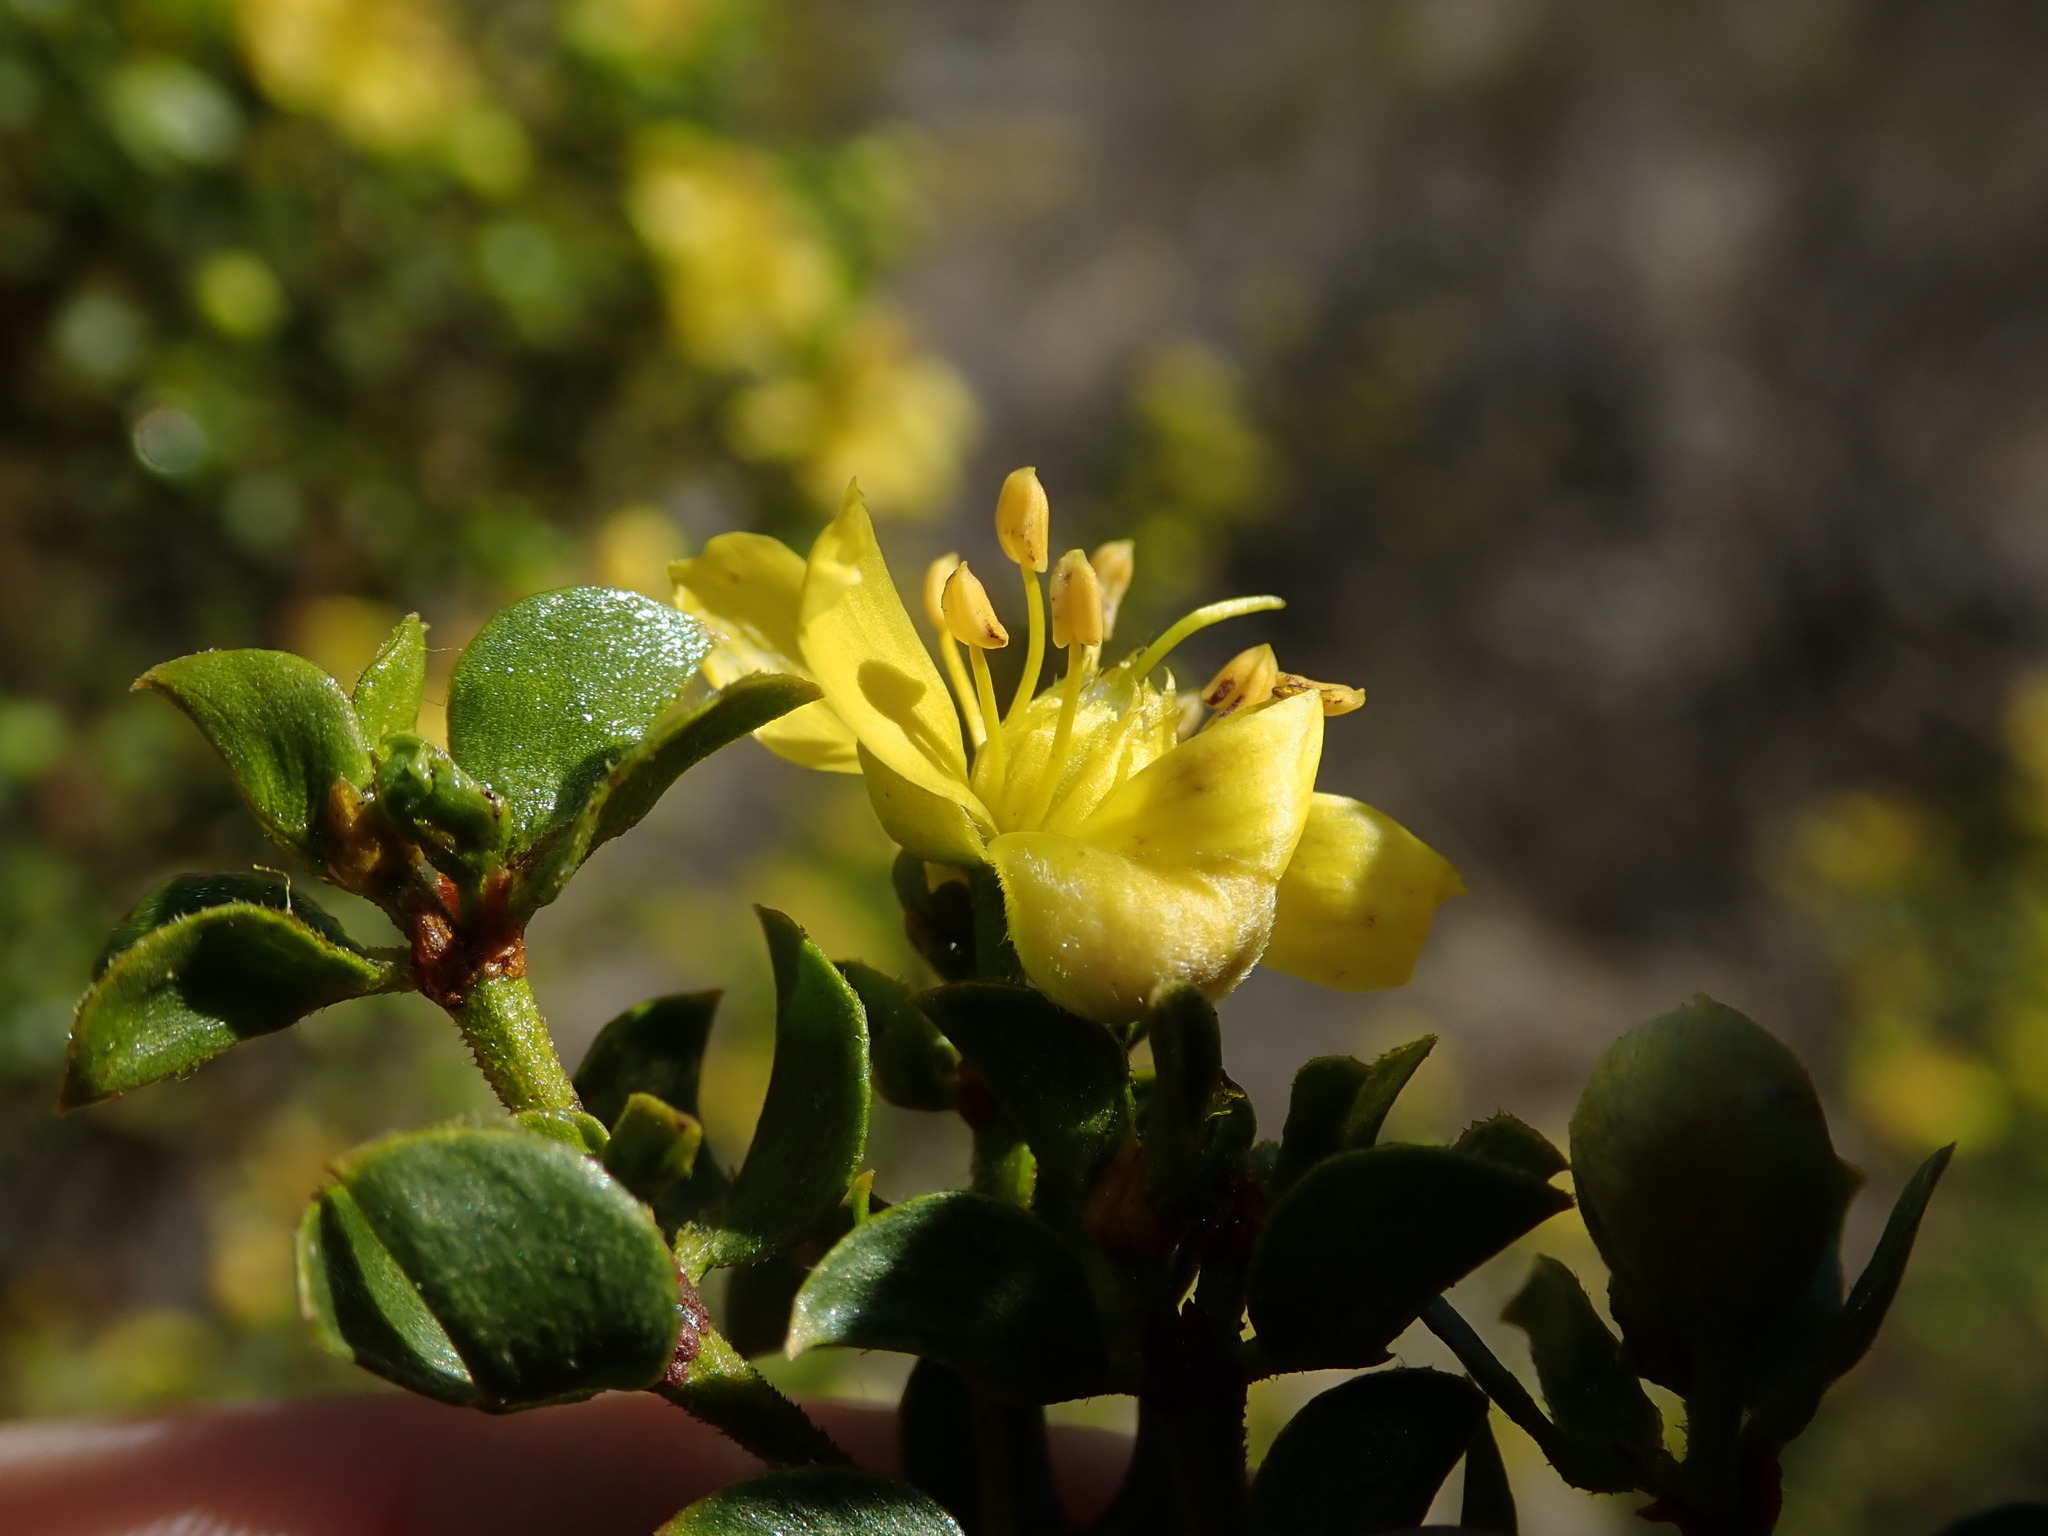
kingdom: Plantae
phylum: Tracheophyta
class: Magnoliopsida
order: Zygophyllales
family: Zygophyllaceae
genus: Larrea
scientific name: Larrea tridentata
